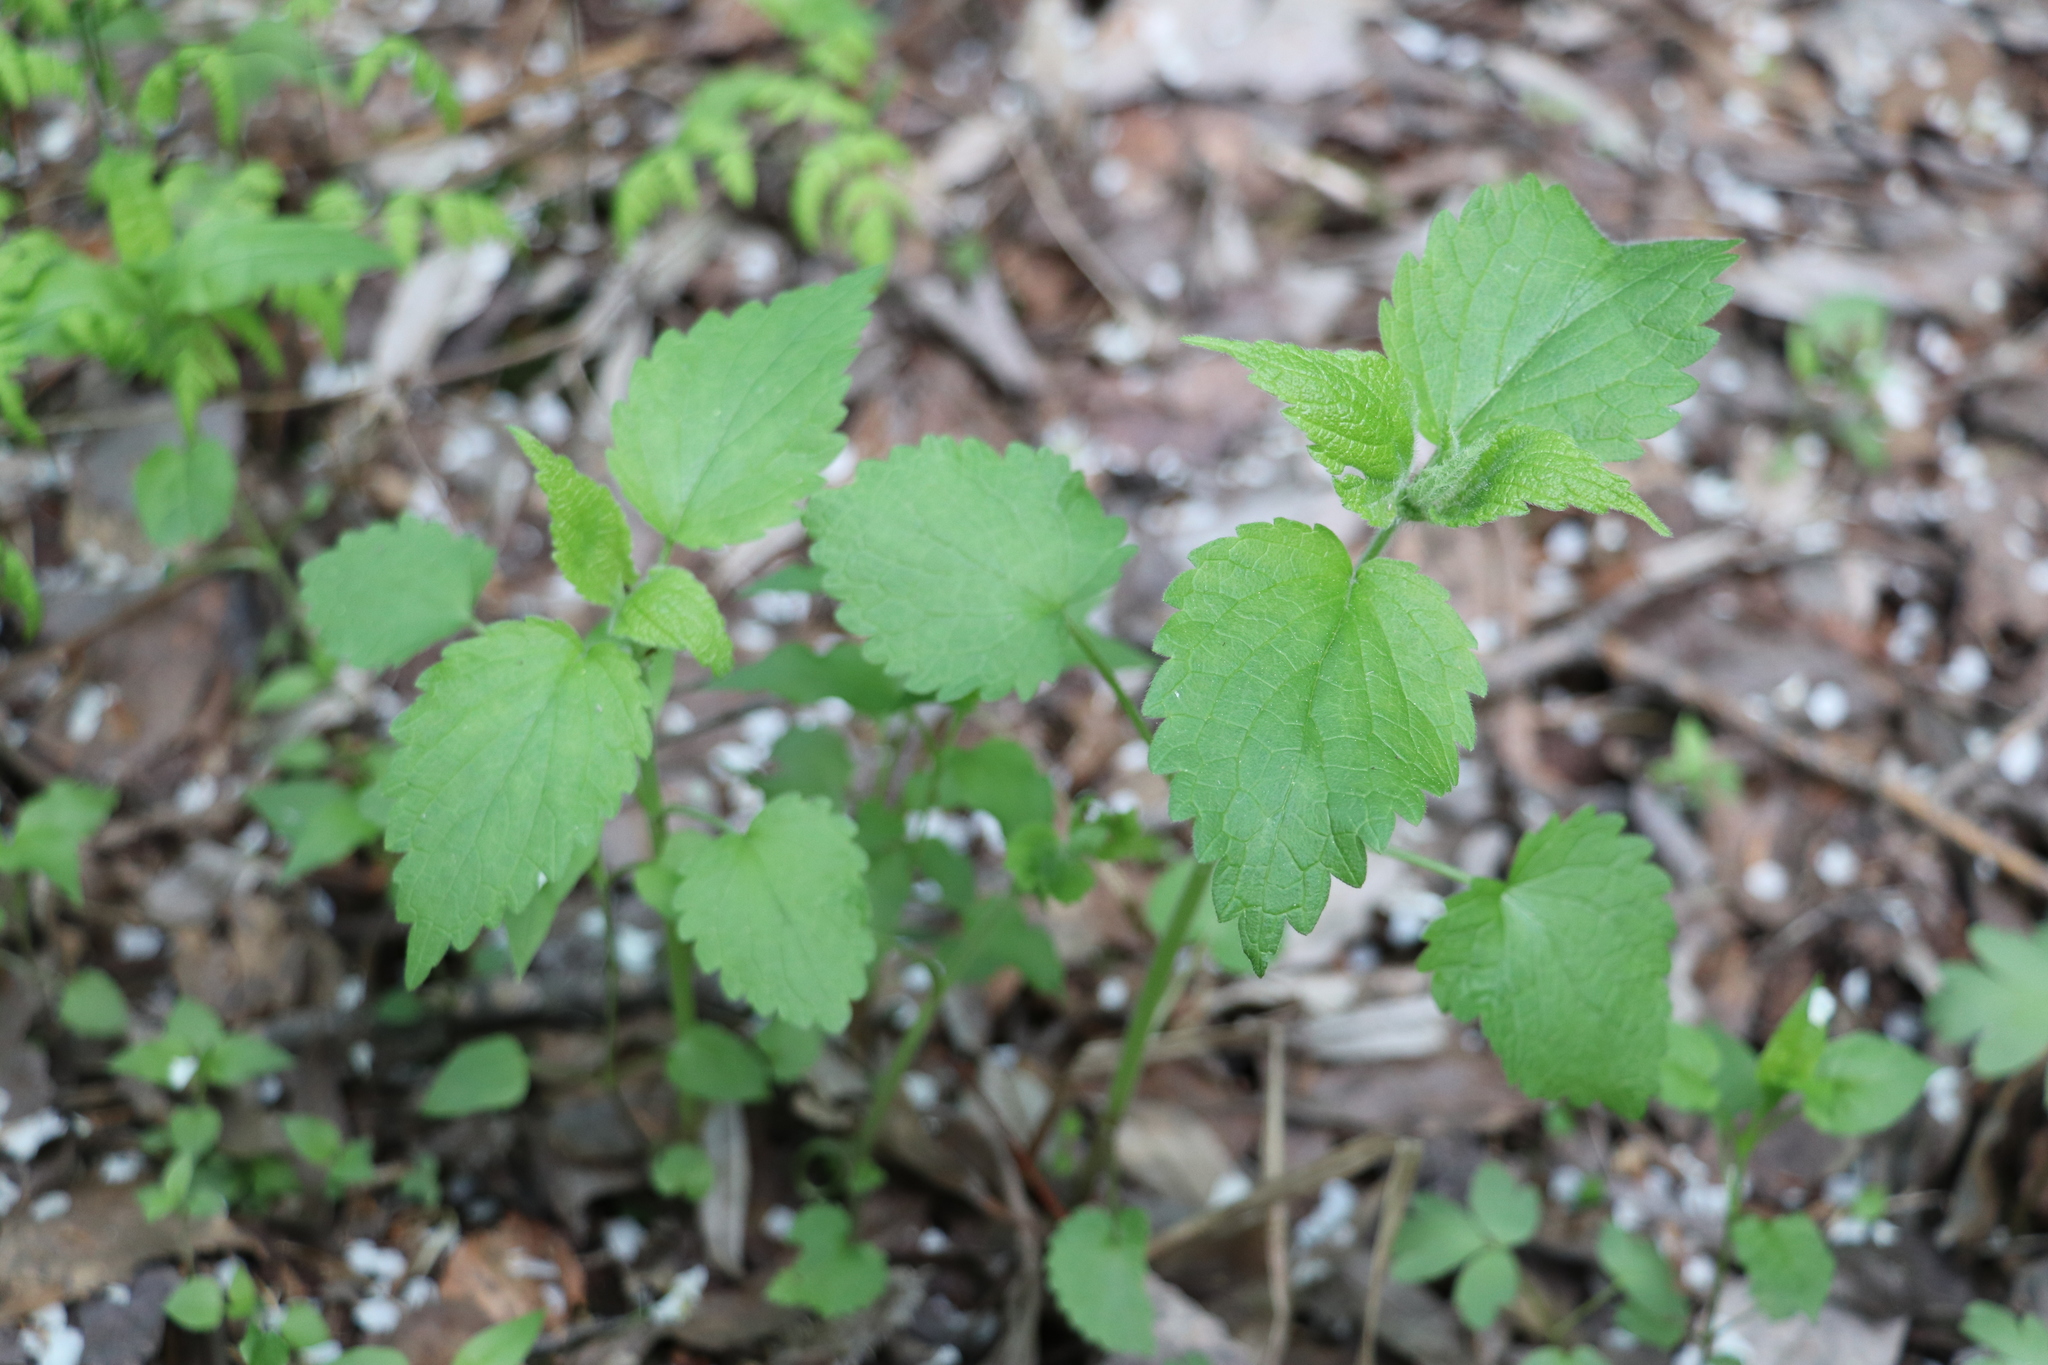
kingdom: Plantae
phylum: Tracheophyta
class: Magnoliopsida
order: Lamiales
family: Lamiaceae
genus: Lamium
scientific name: Lamium album
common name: White dead-nettle
